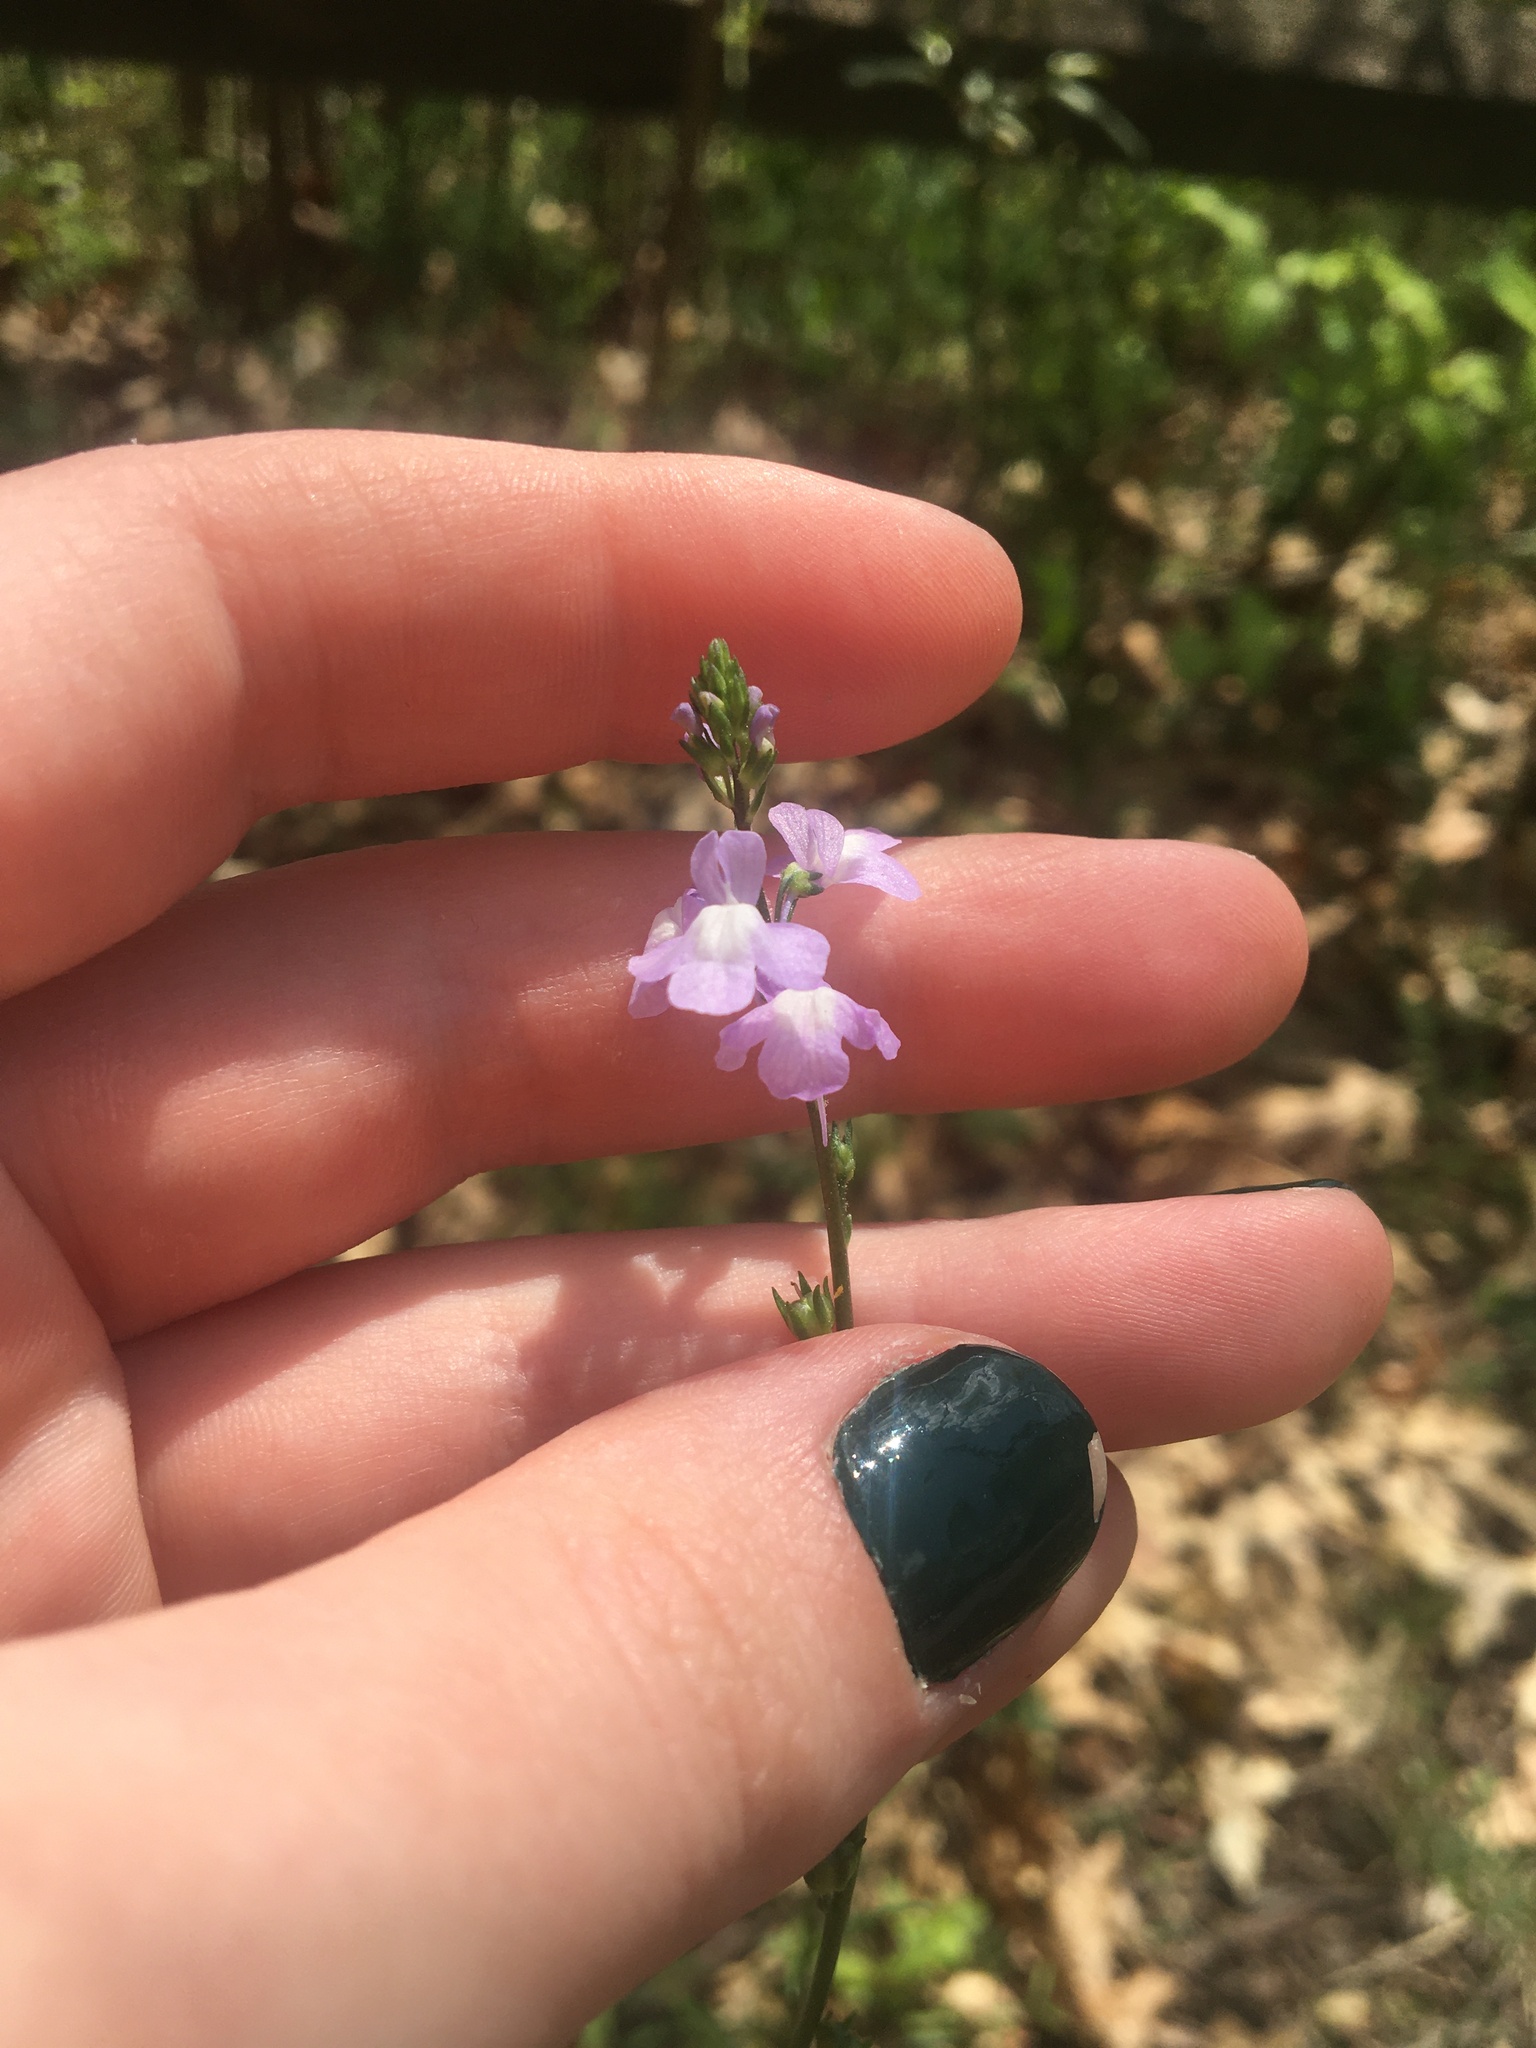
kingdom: Plantae
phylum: Tracheophyta
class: Magnoliopsida
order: Lamiales
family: Plantaginaceae
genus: Nuttallanthus
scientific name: Nuttallanthus canadensis
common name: Blue toadflax
